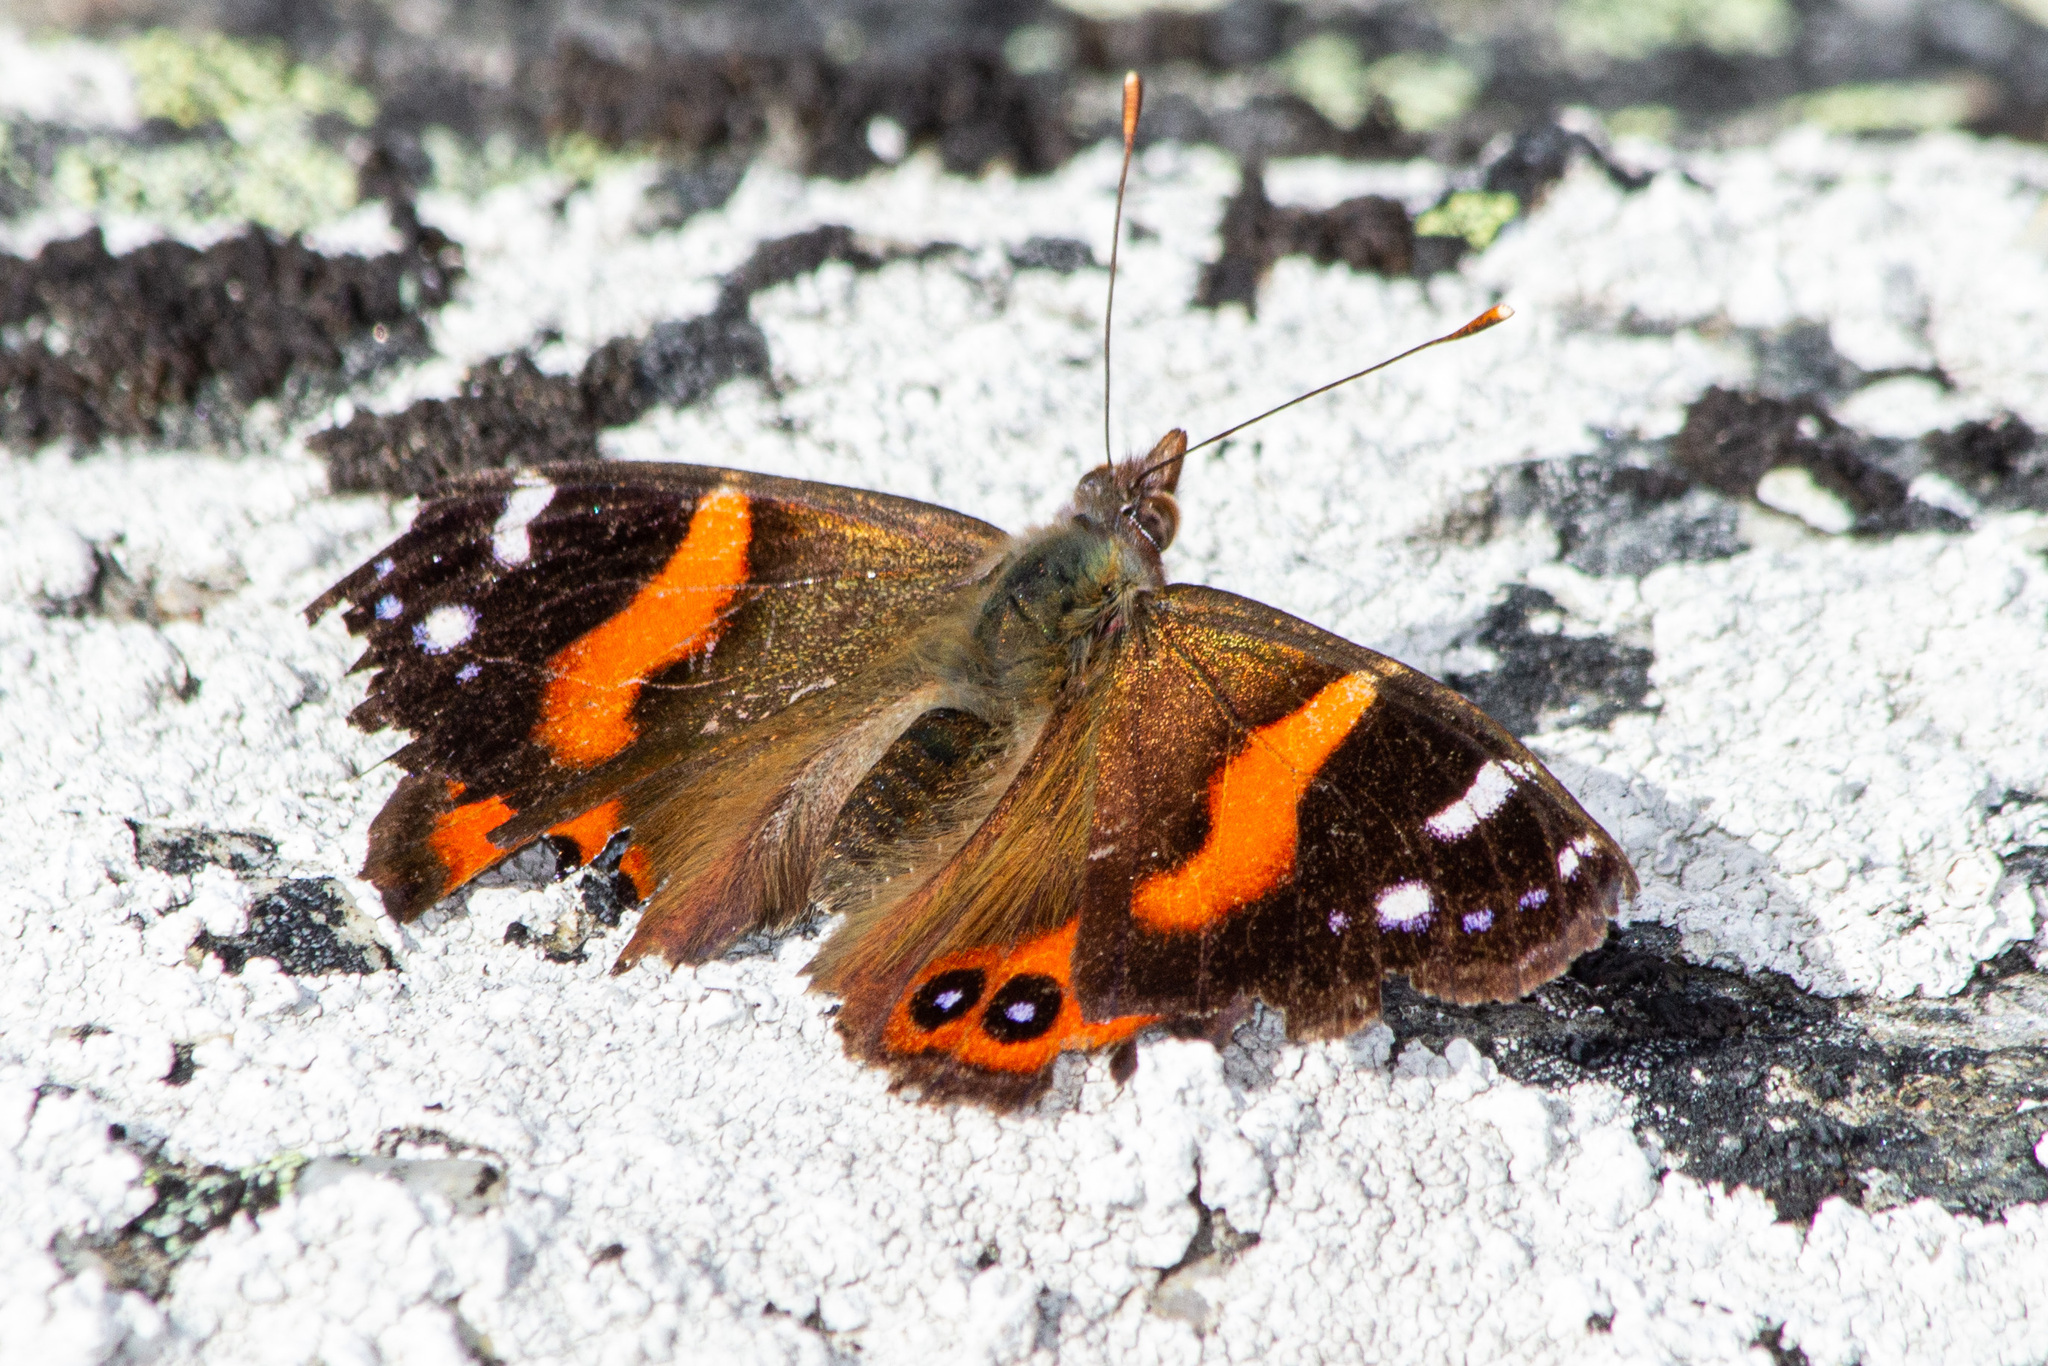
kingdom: Animalia
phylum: Arthropoda
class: Insecta
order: Lepidoptera
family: Nymphalidae
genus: Vanessa
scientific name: Vanessa gonerilla
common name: New zealand red admiral
